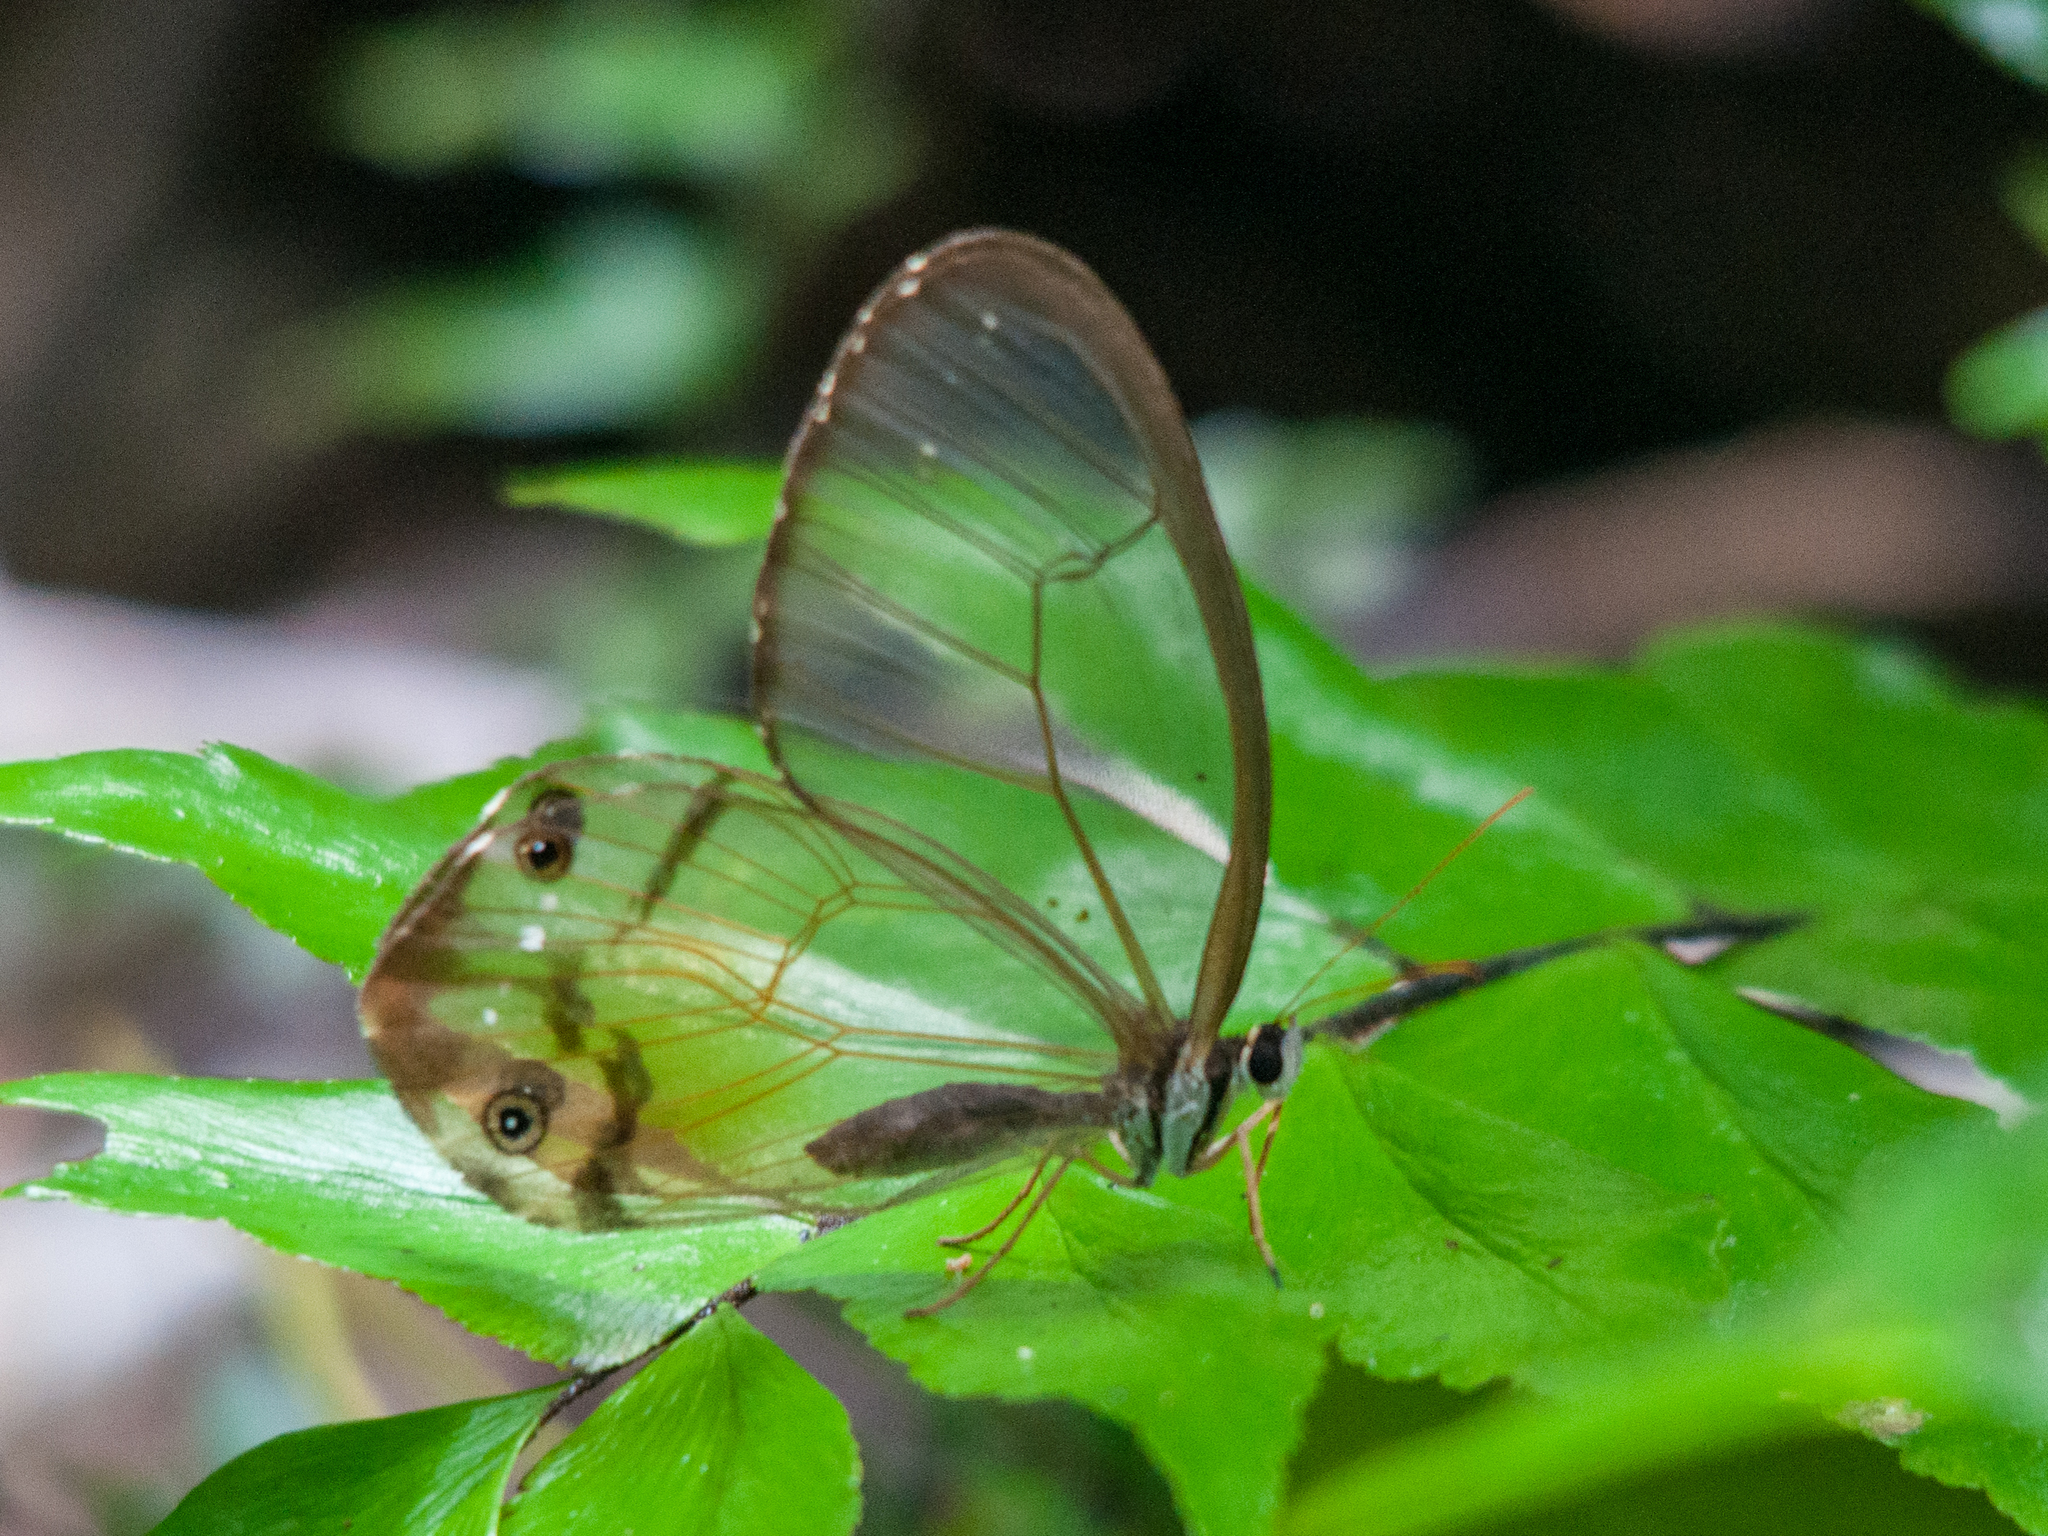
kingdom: Animalia
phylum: Arthropoda
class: Insecta
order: Lepidoptera
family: Nymphalidae
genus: Haetera
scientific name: Haetera piera
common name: Amber phantom
